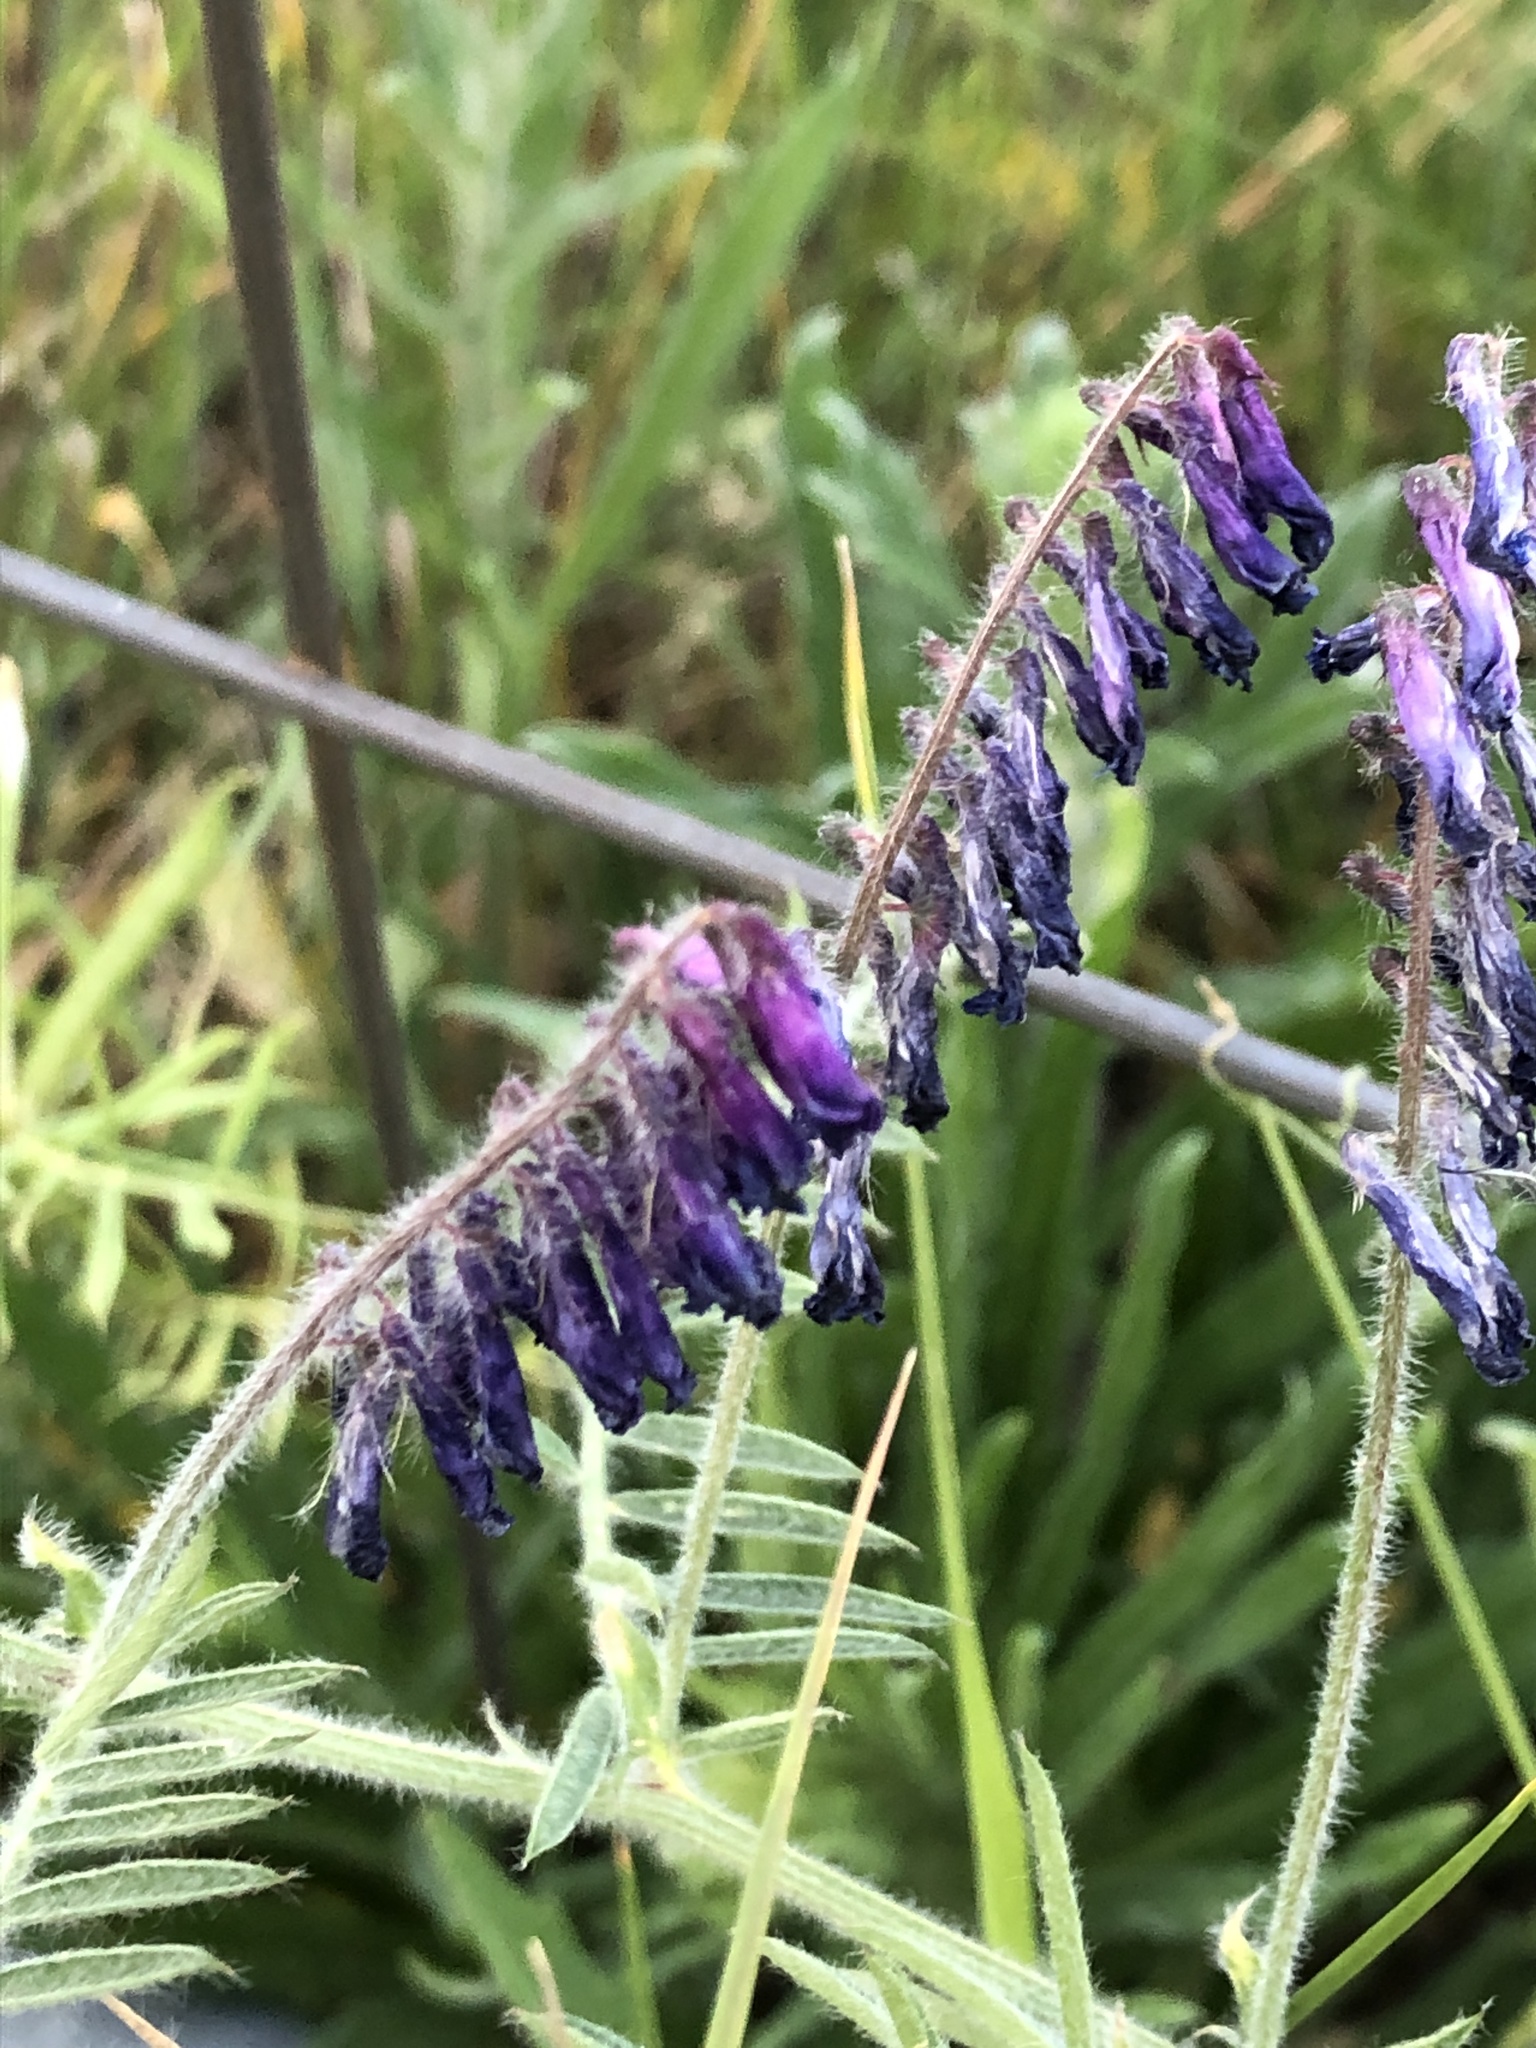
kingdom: Plantae
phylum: Tracheophyta
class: Magnoliopsida
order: Fabales
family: Fabaceae
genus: Vicia
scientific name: Vicia villosa
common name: Fodder vetch
